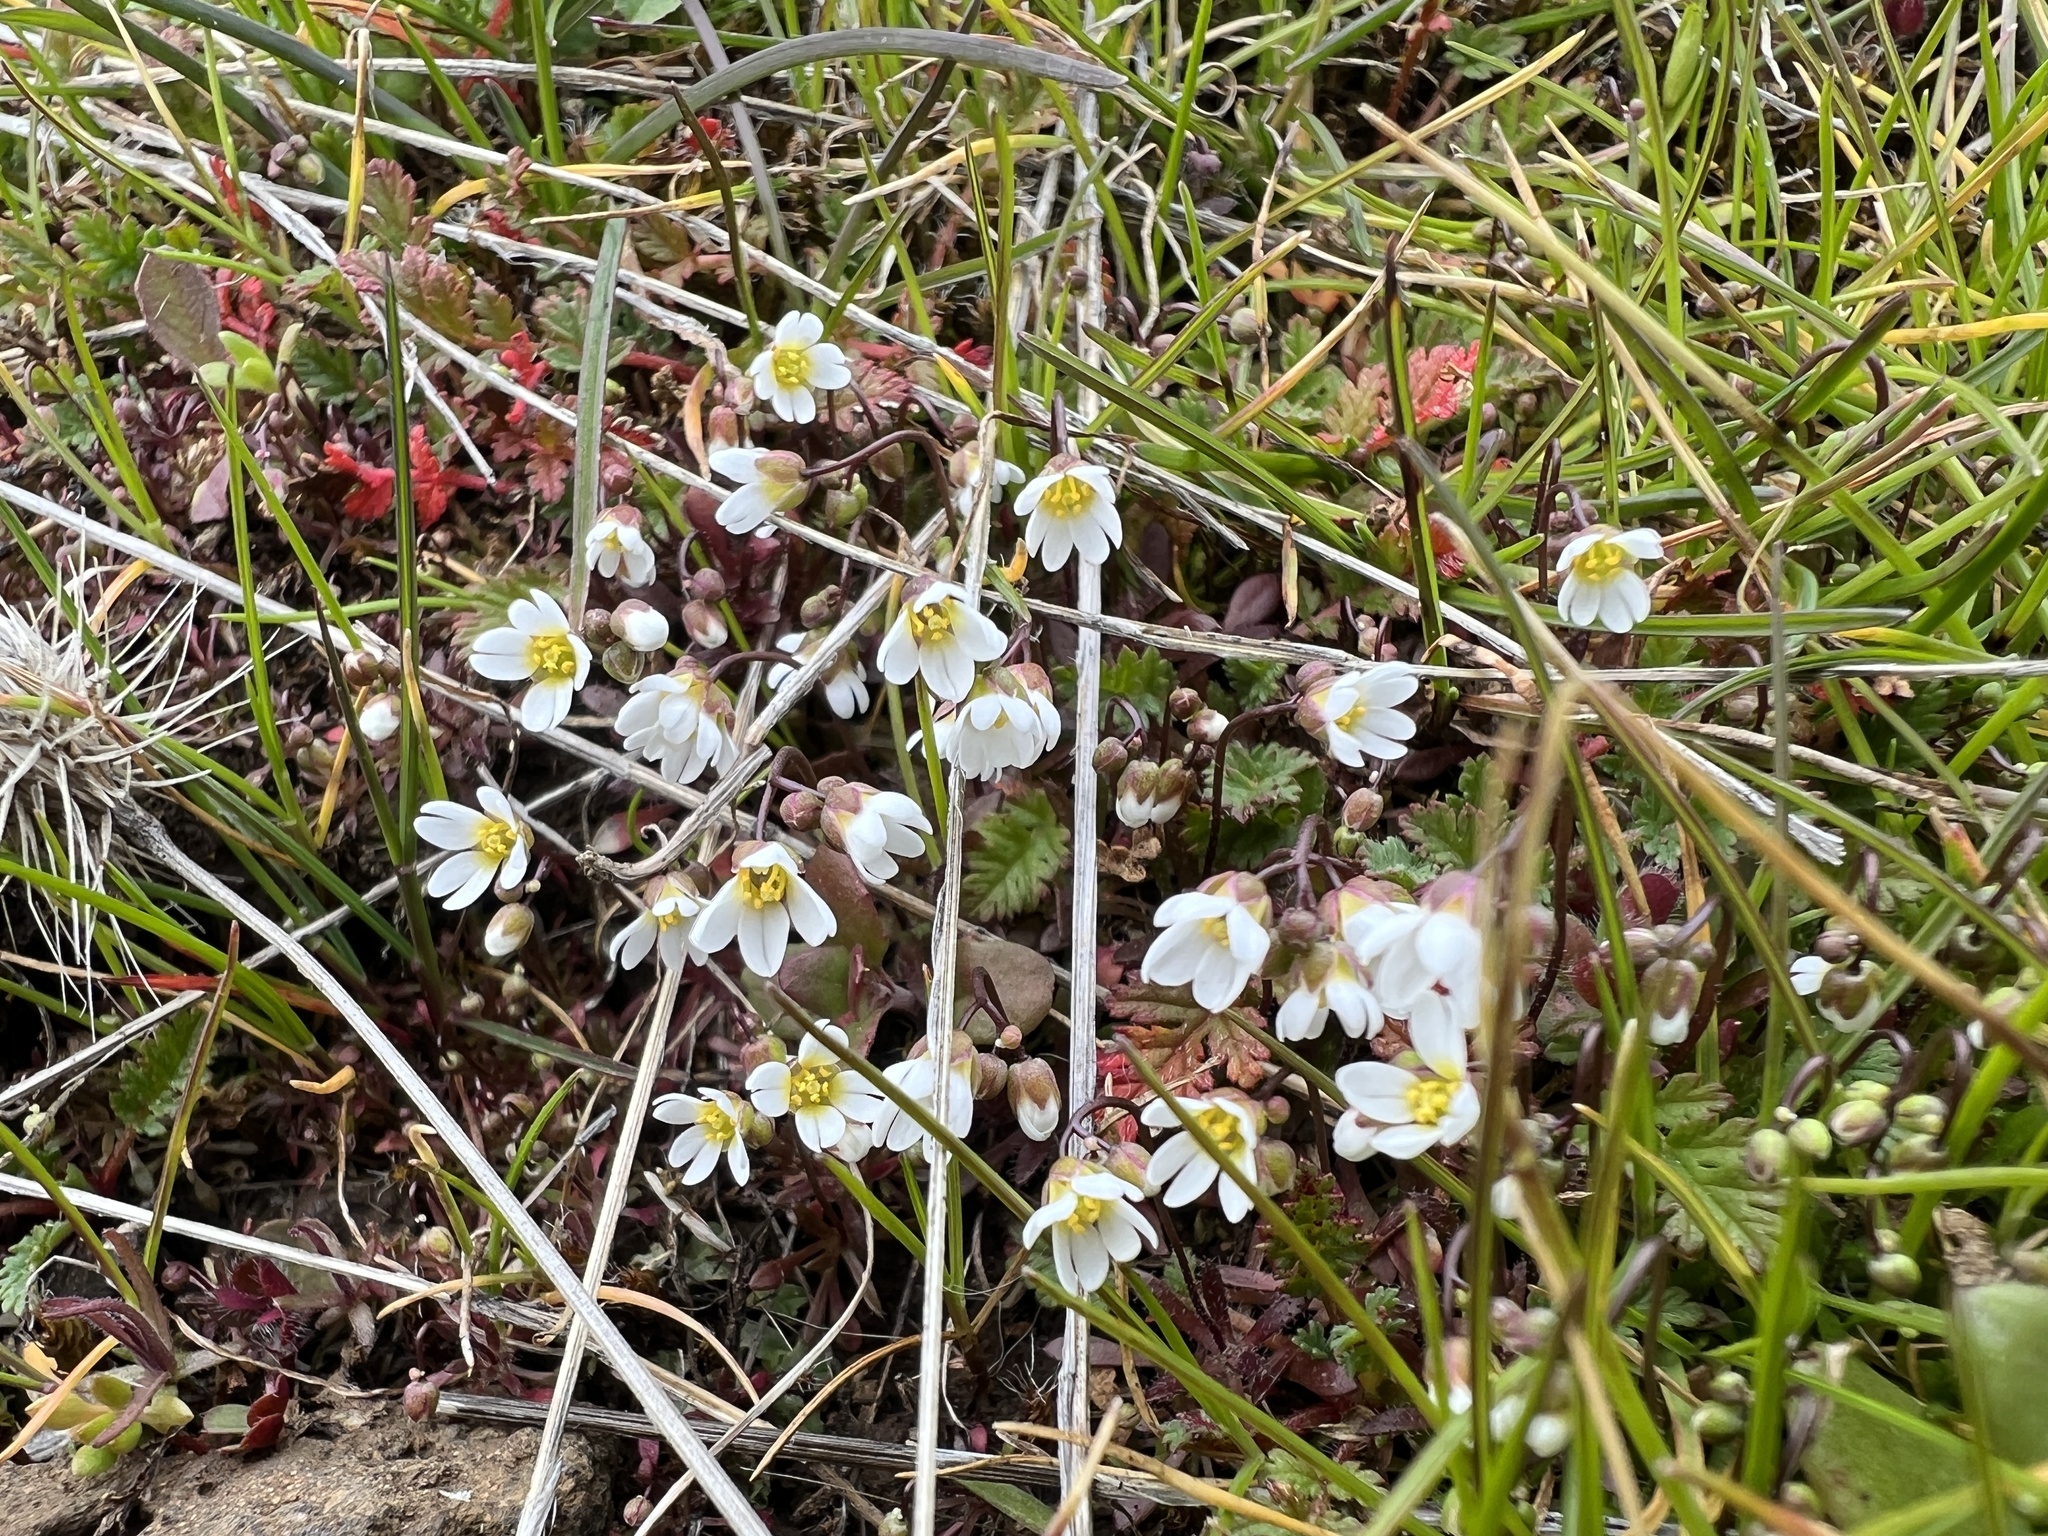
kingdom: Plantae
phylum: Tracheophyta
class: Magnoliopsida
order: Brassicales
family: Brassicaceae
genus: Draba
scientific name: Draba verna
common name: Spring draba
